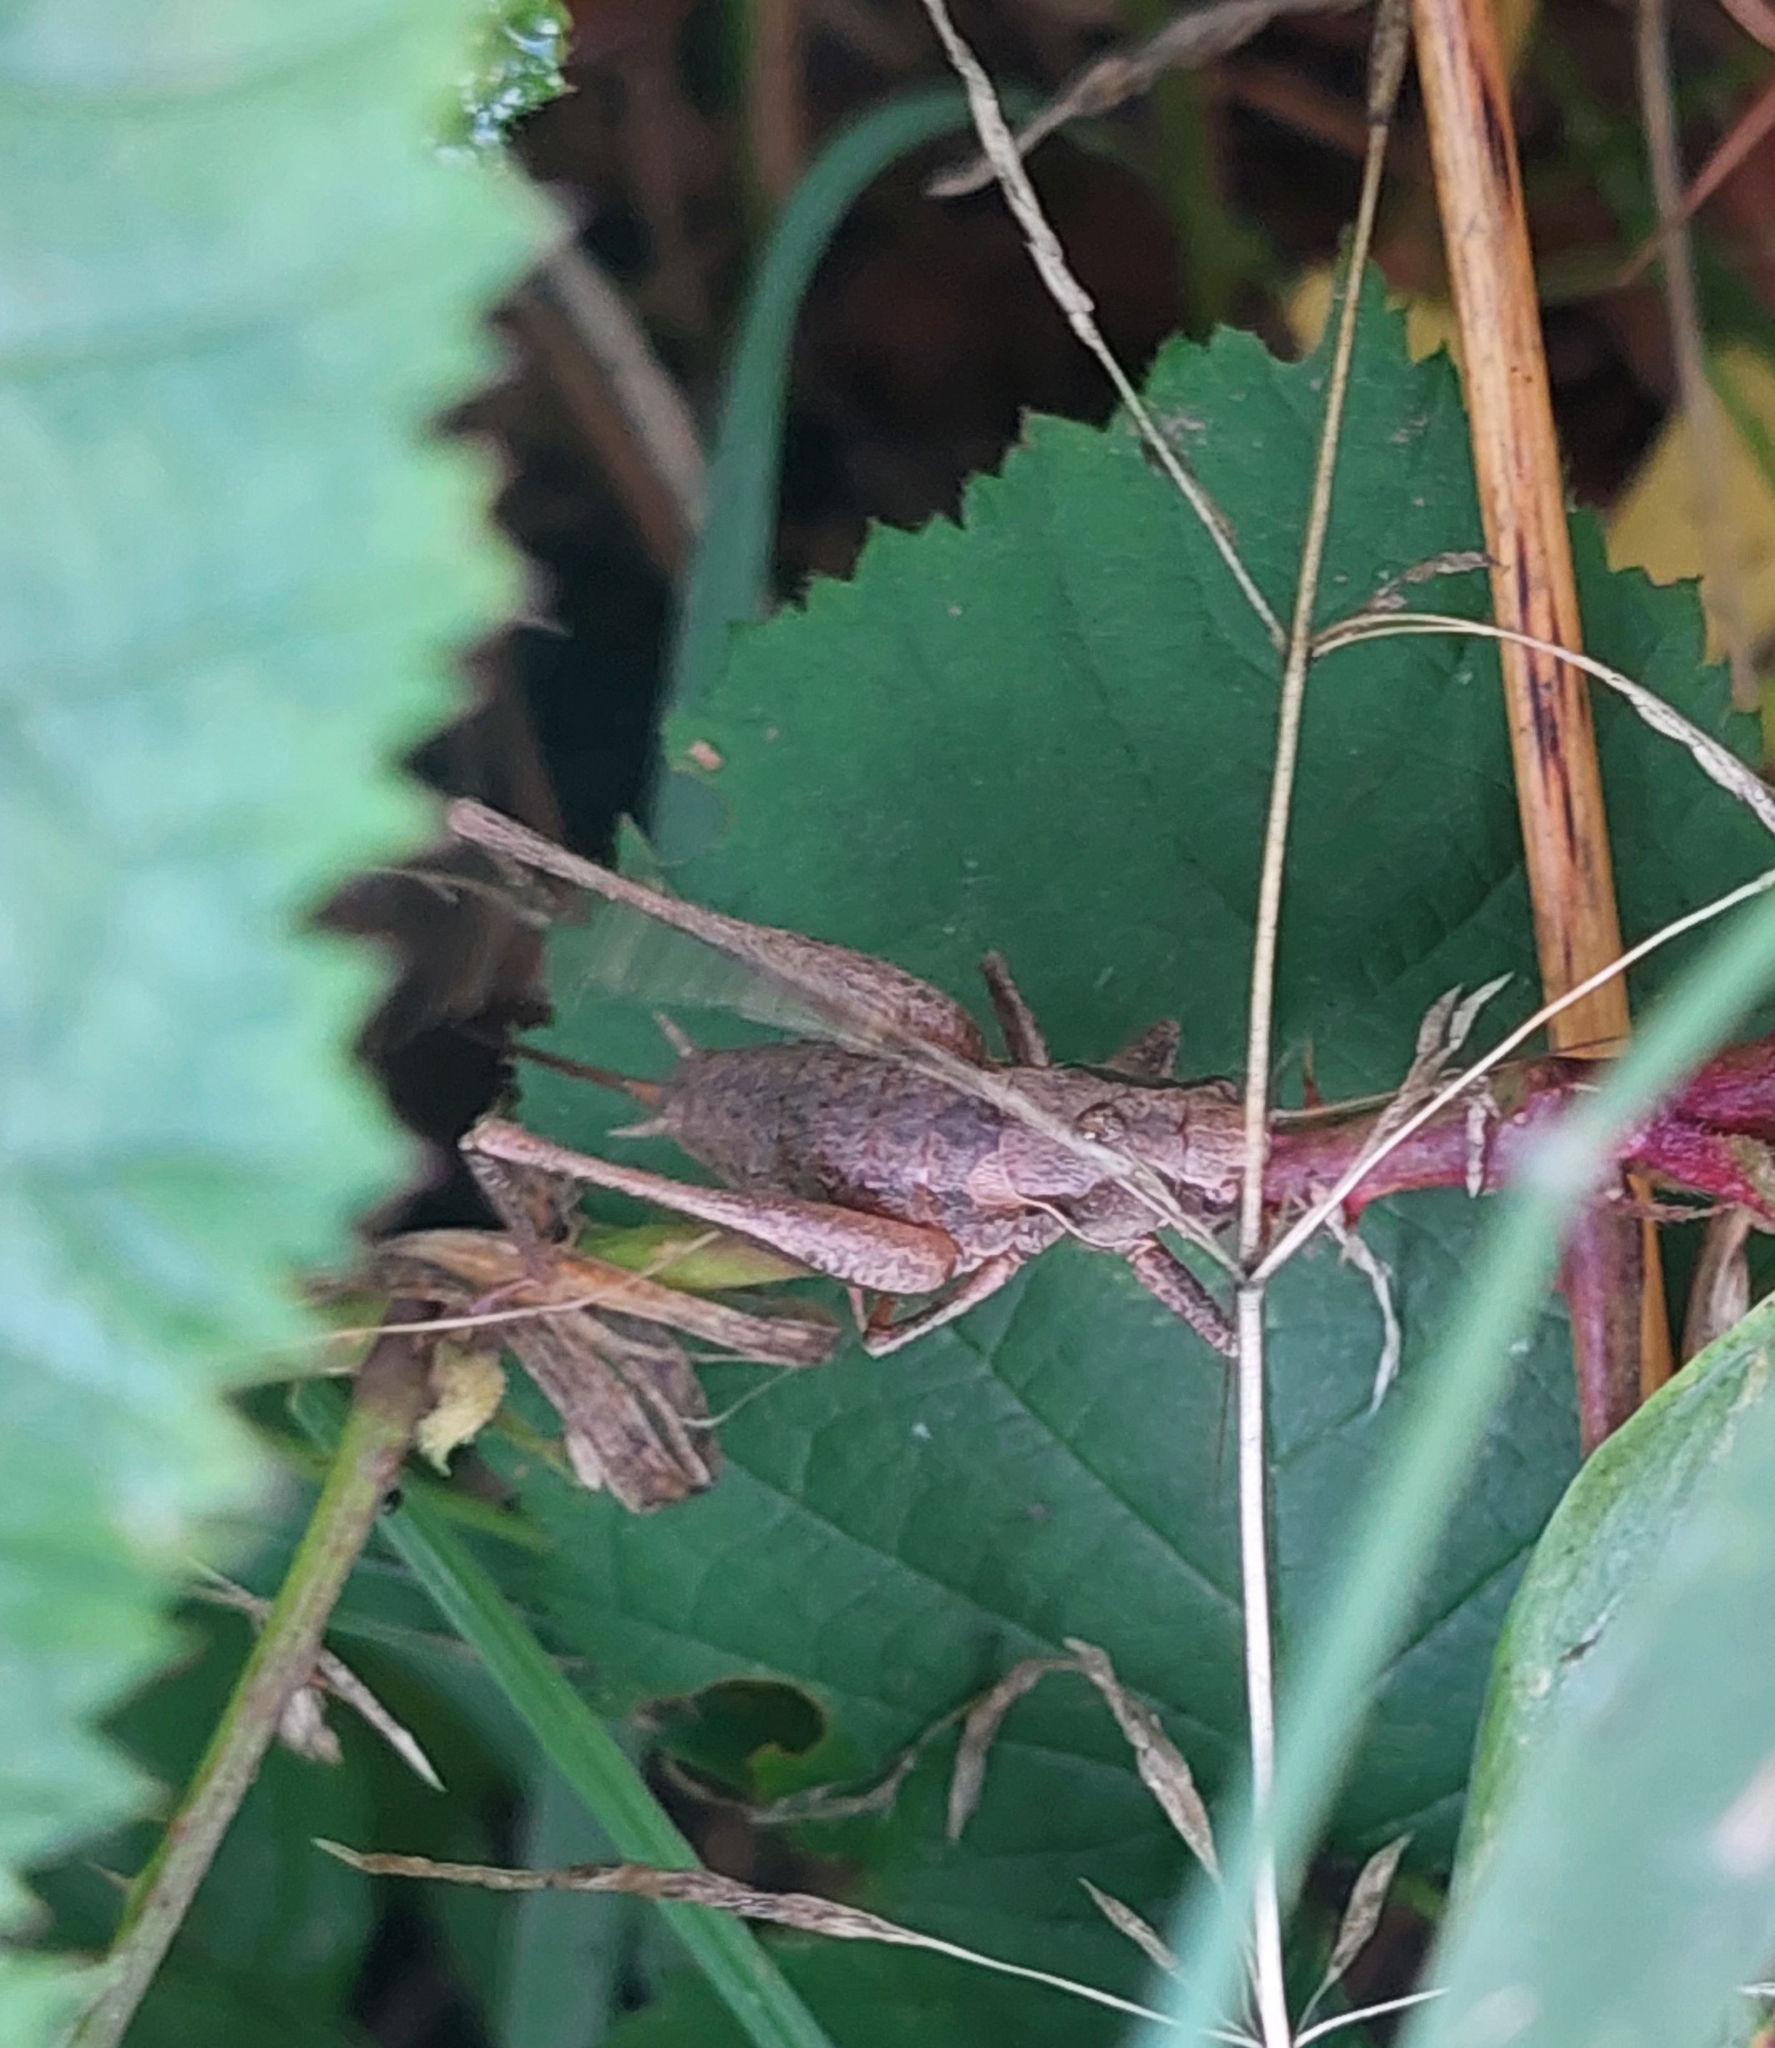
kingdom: Animalia
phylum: Arthropoda
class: Insecta
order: Orthoptera
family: Tettigoniidae
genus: Pholidoptera
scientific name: Pholidoptera griseoaptera
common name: Dark bush-cricket
